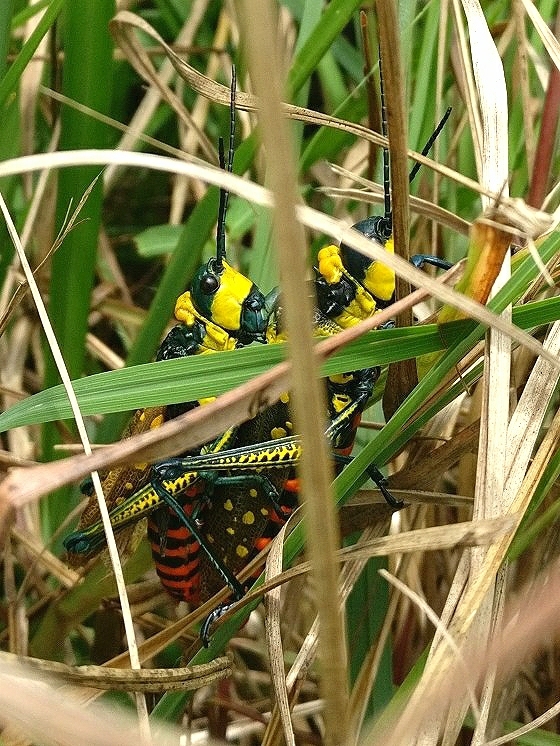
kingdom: Animalia
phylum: Arthropoda
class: Insecta
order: Orthoptera
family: Pyrgomorphidae
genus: Aularches
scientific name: Aularches miliaris
